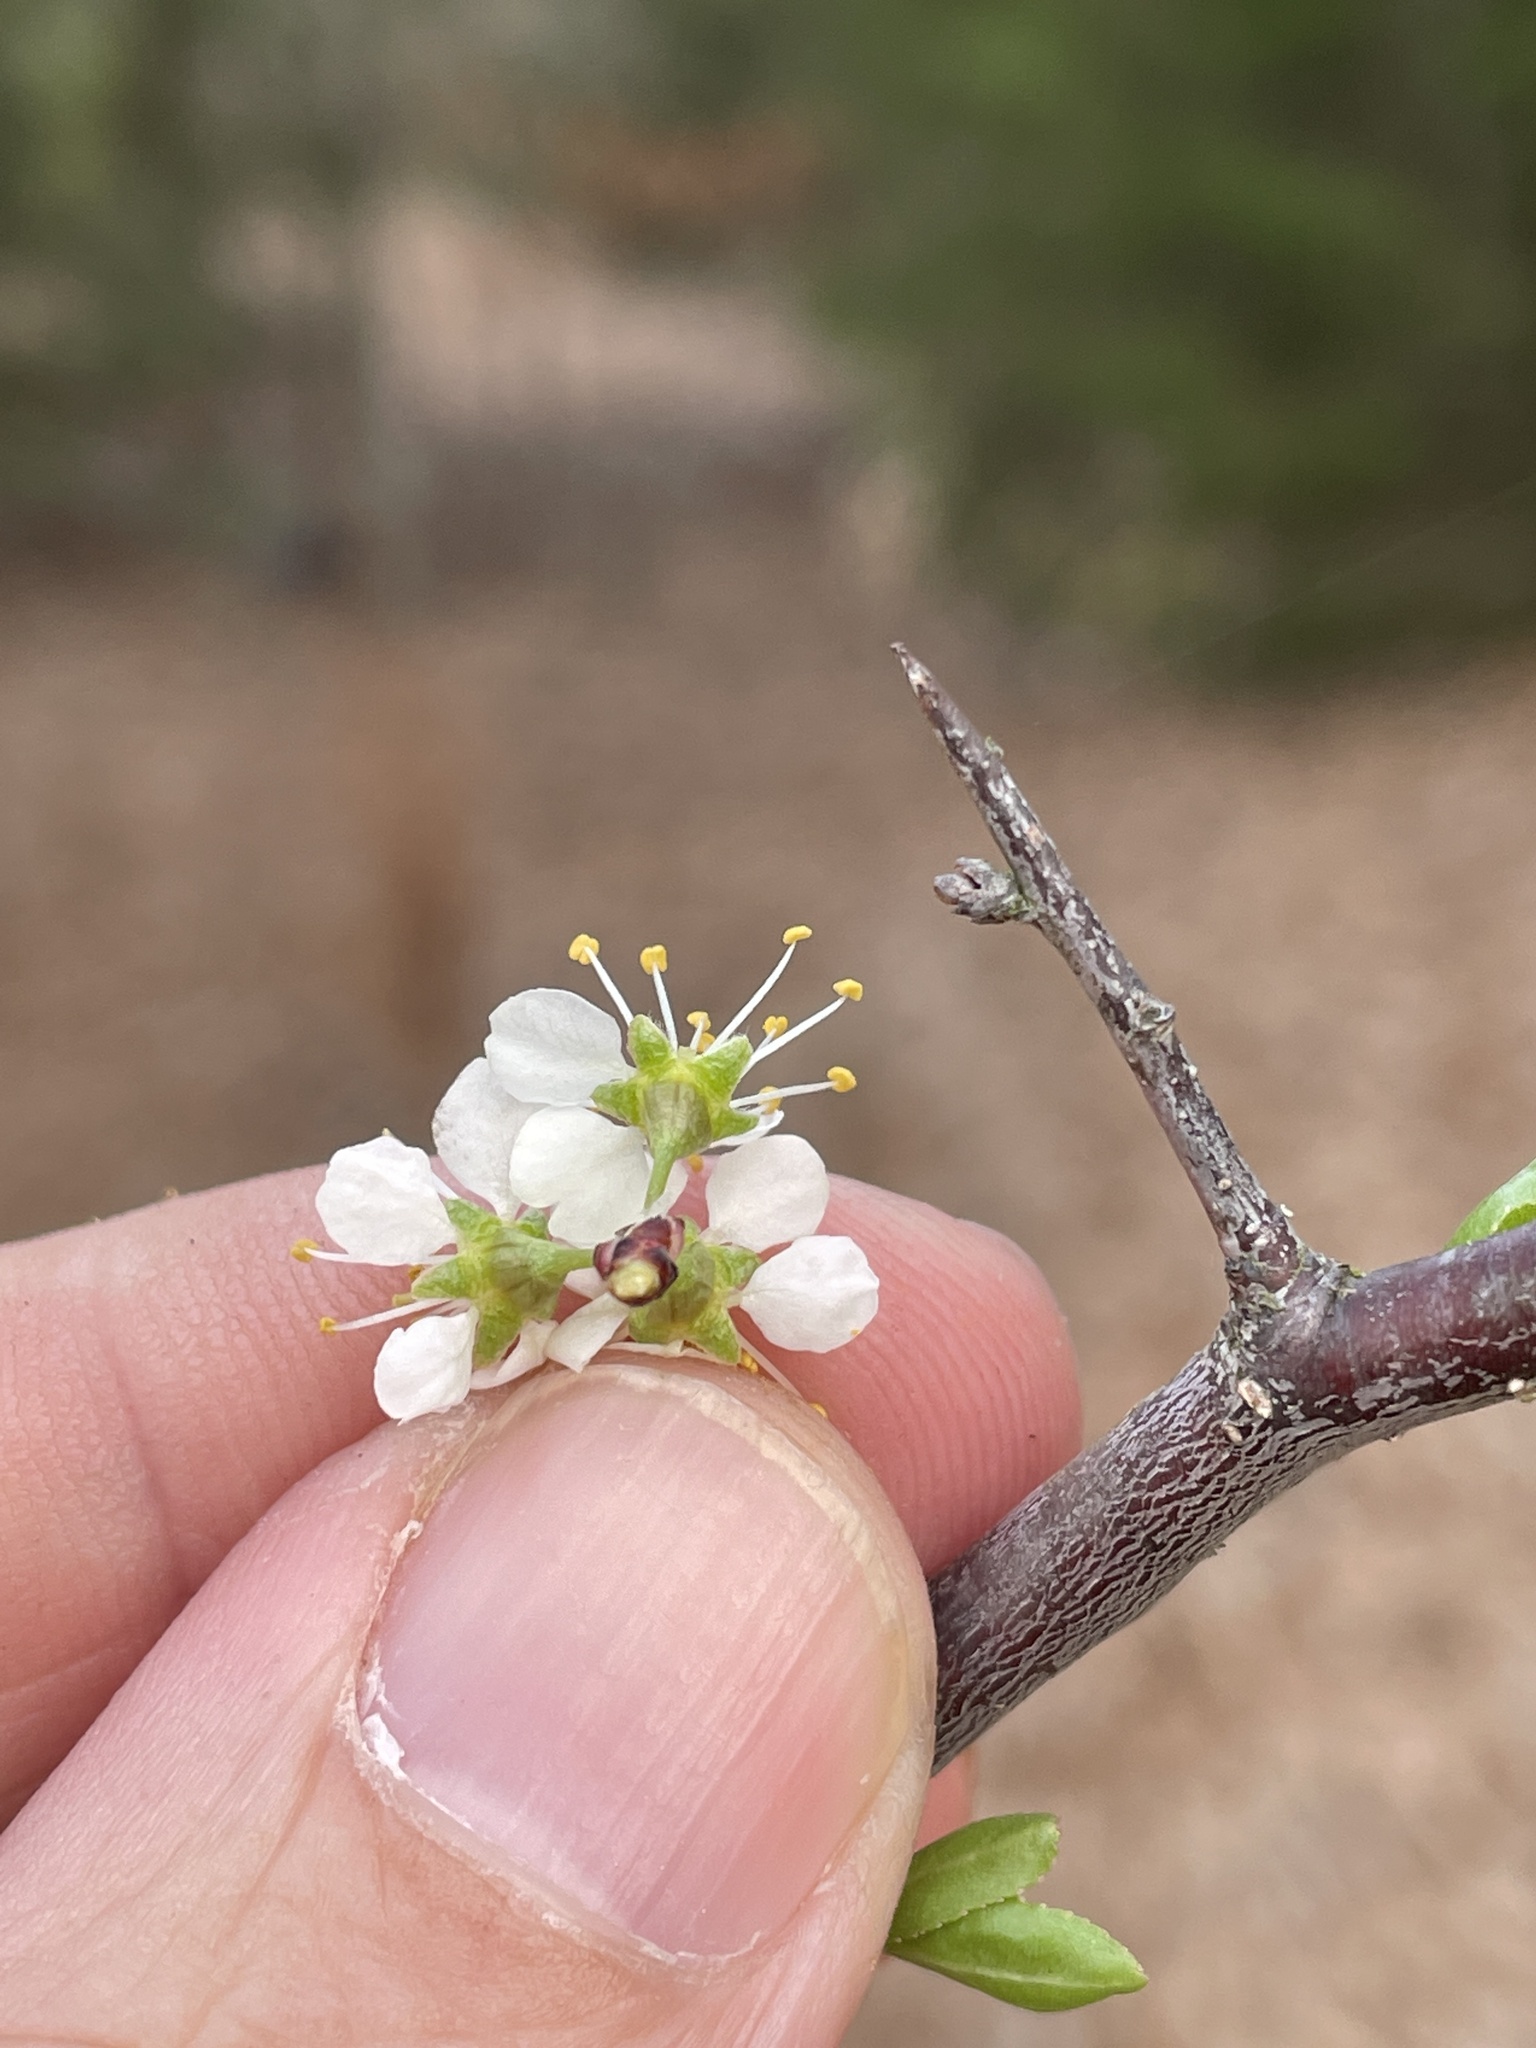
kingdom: Plantae
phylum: Tracheophyta
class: Magnoliopsida
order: Rosales
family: Rosaceae
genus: Prunus
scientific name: Prunus angustifolia
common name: Cherokee plum
